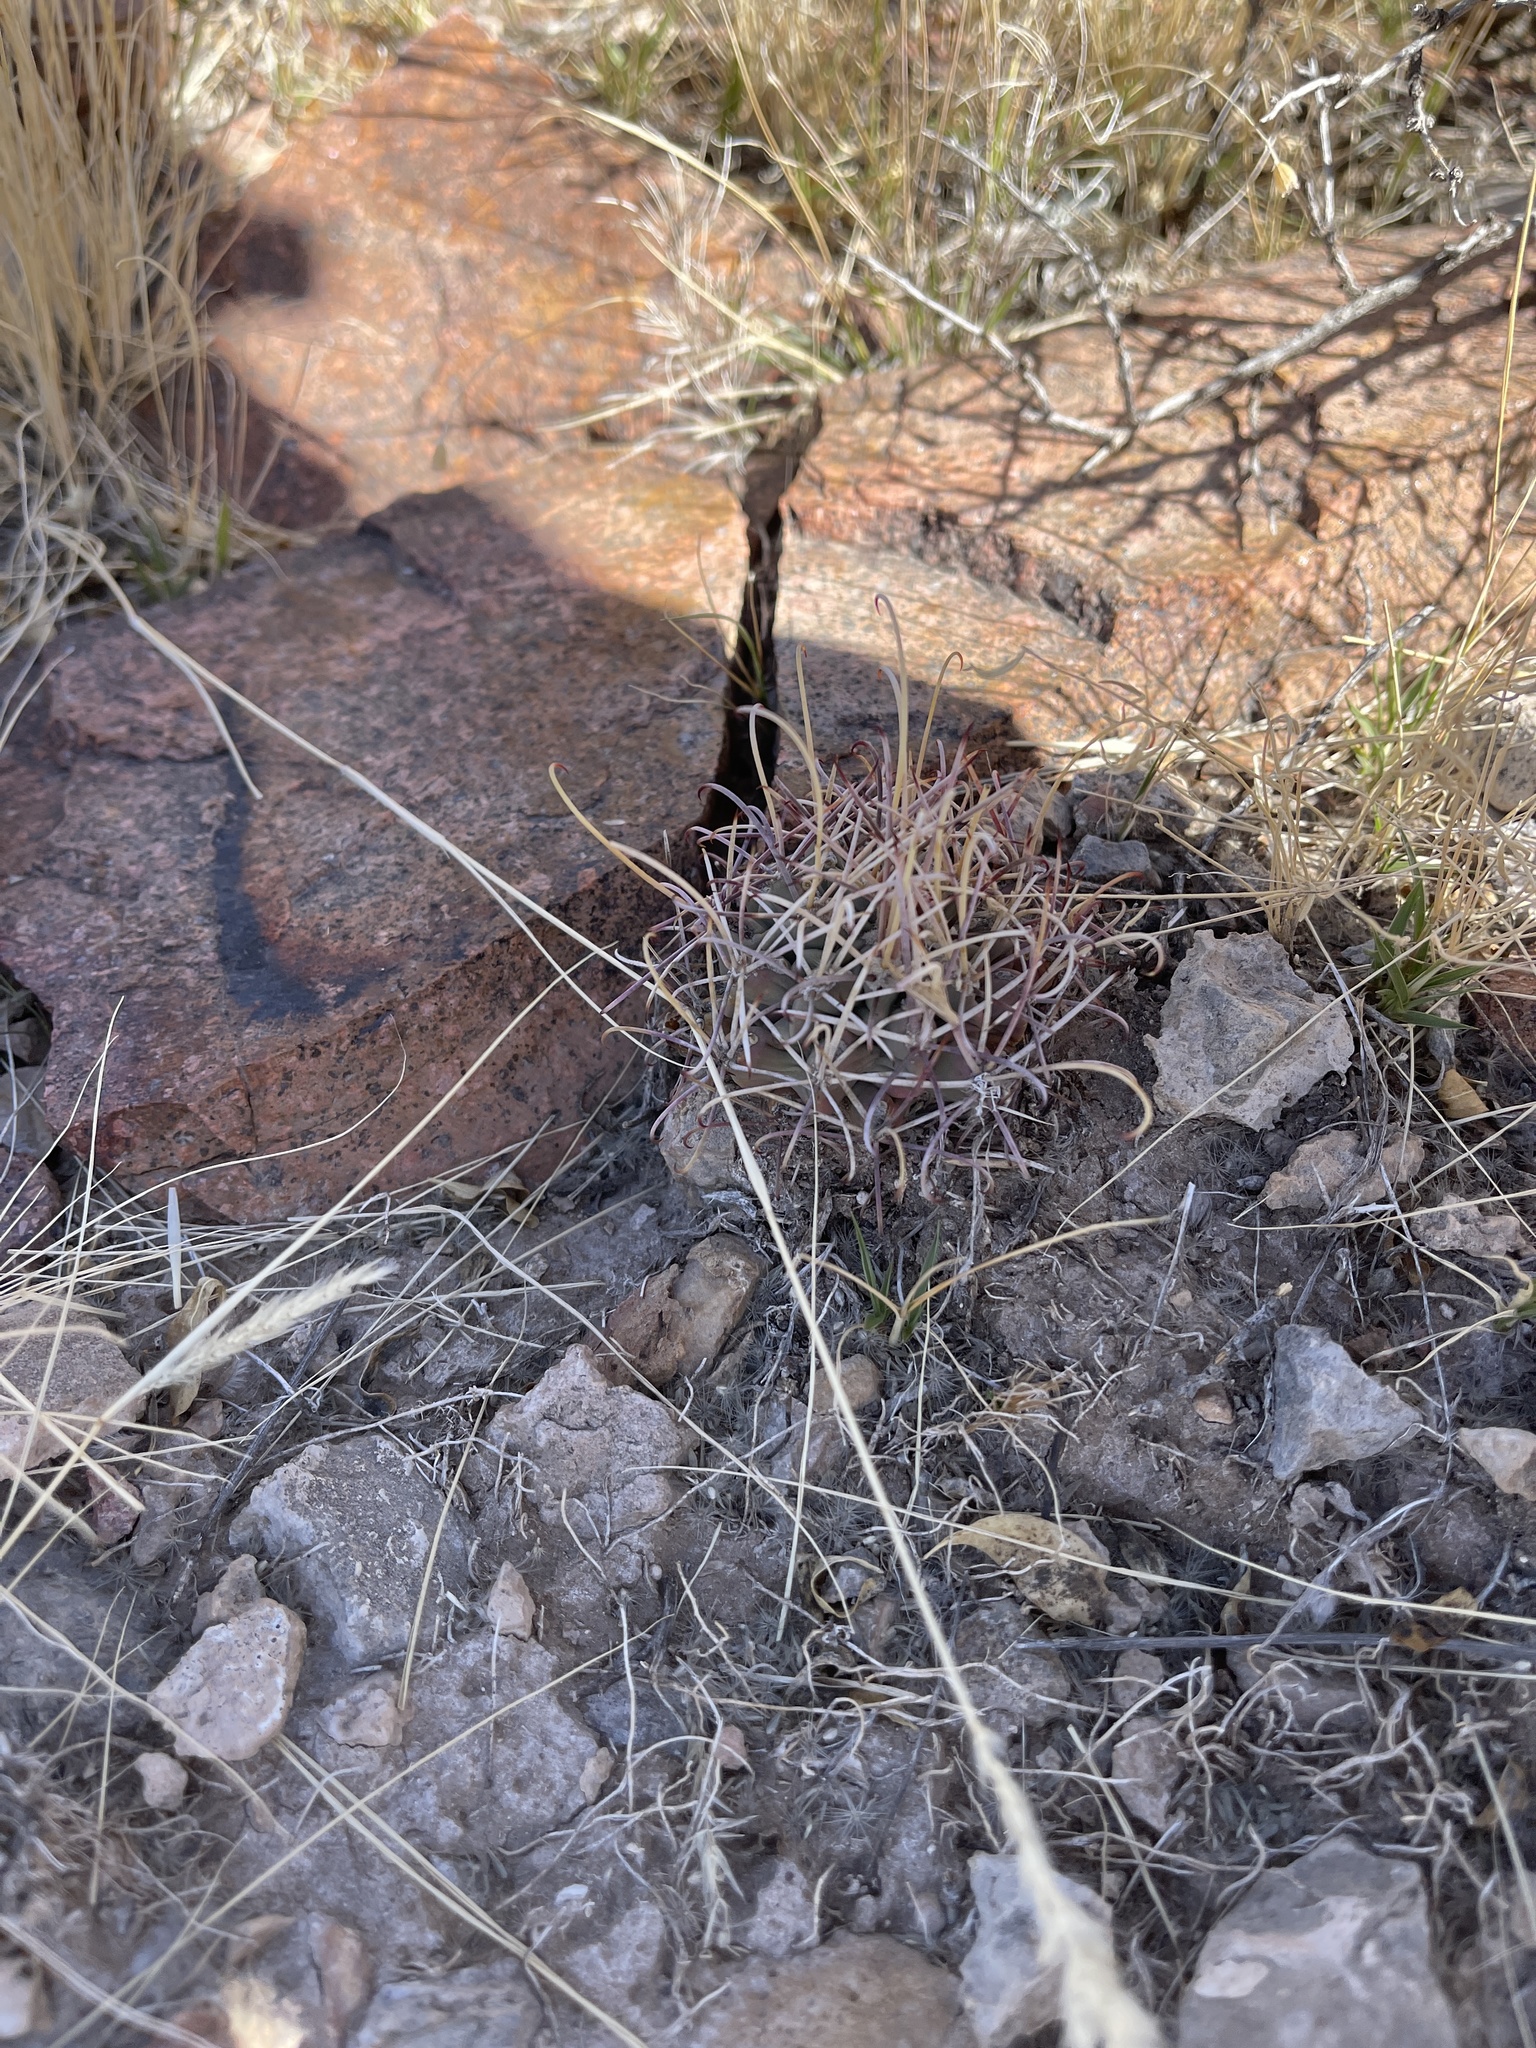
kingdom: Plantae
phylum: Tracheophyta
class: Magnoliopsida
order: Caryophyllales
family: Cactaceae
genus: Ferocactus
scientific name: Ferocactus uncinatus
